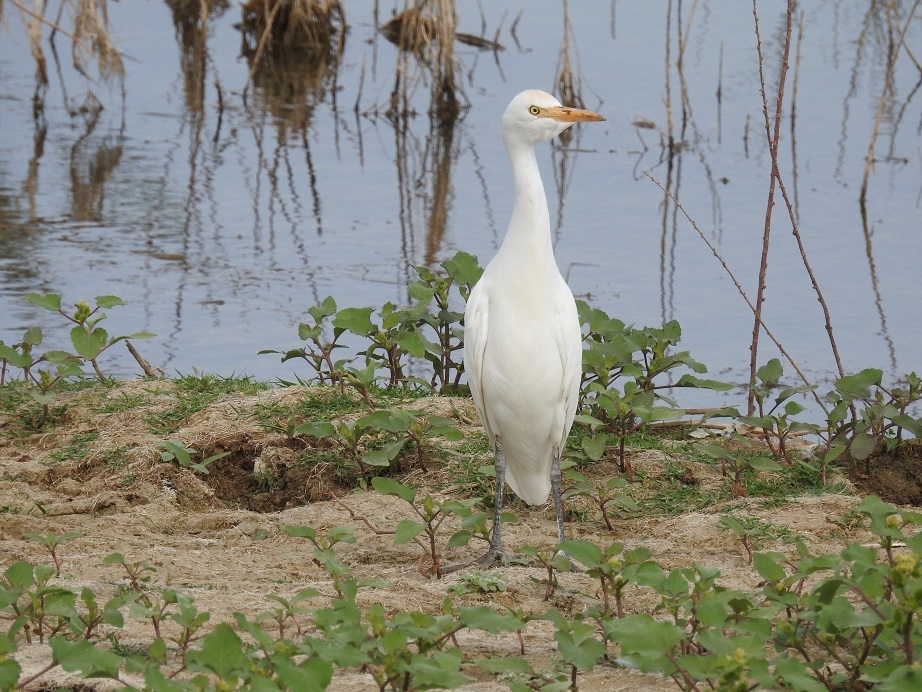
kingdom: Animalia
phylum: Chordata
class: Aves
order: Pelecaniformes
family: Ardeidae
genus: Bubulcus
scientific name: Bubulcus ibis
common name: Cattle egret
